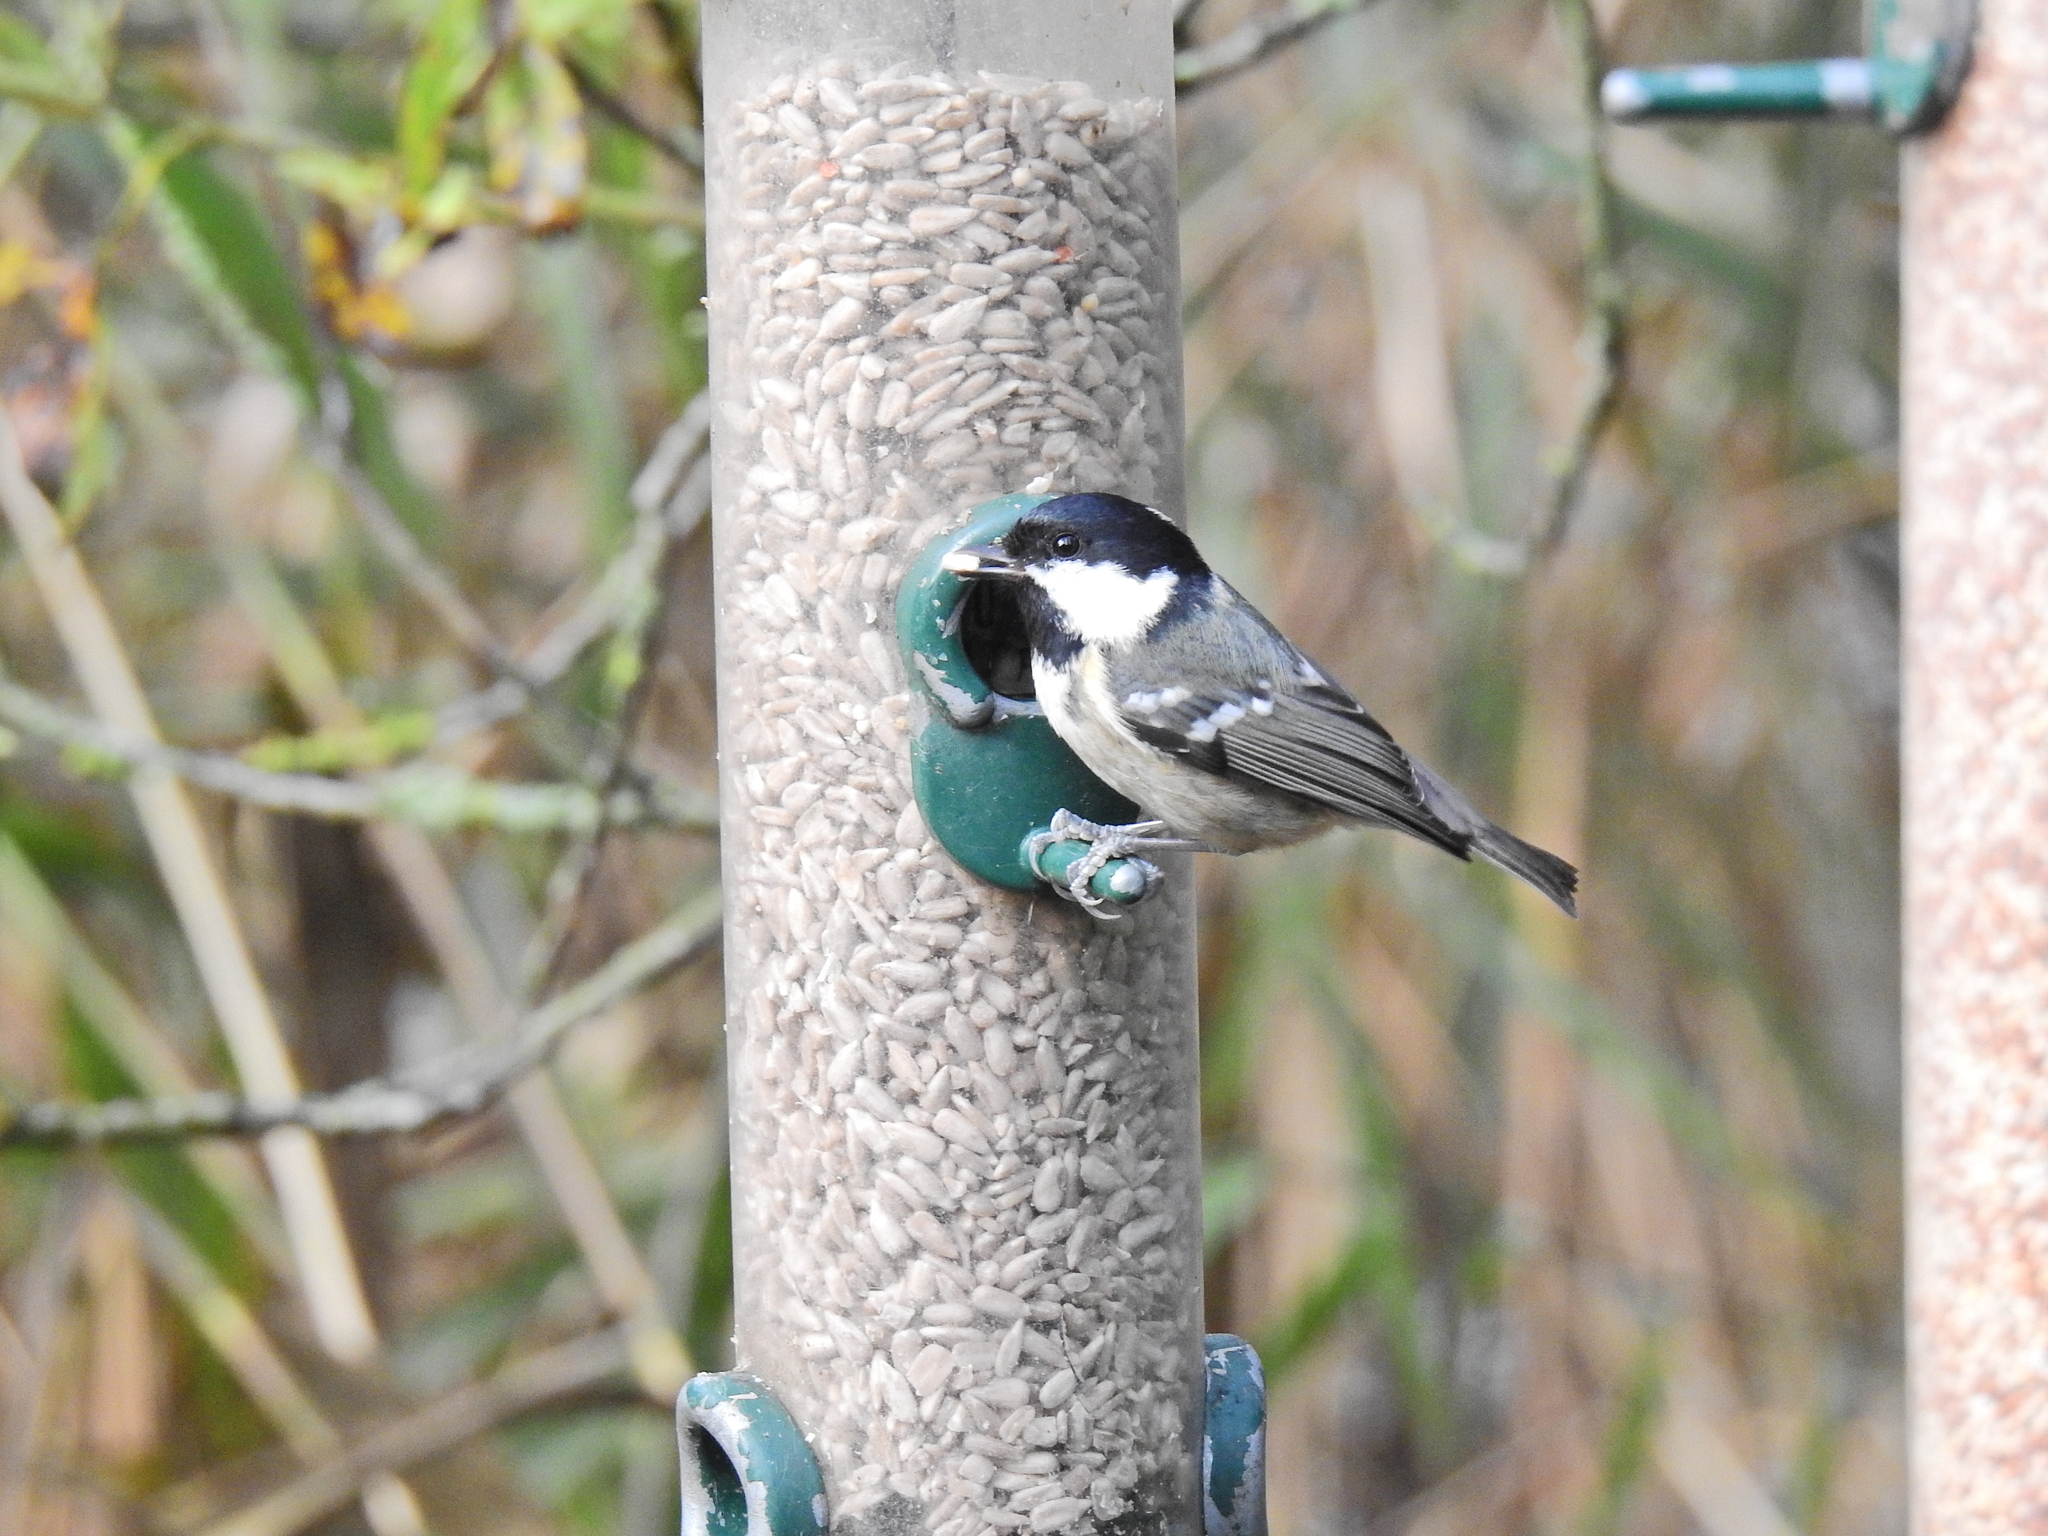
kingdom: Animalia
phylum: Chordata
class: Aves
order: Passeriformes
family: Paridae
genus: Periparus
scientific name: Periparus ater
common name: Coal tit
